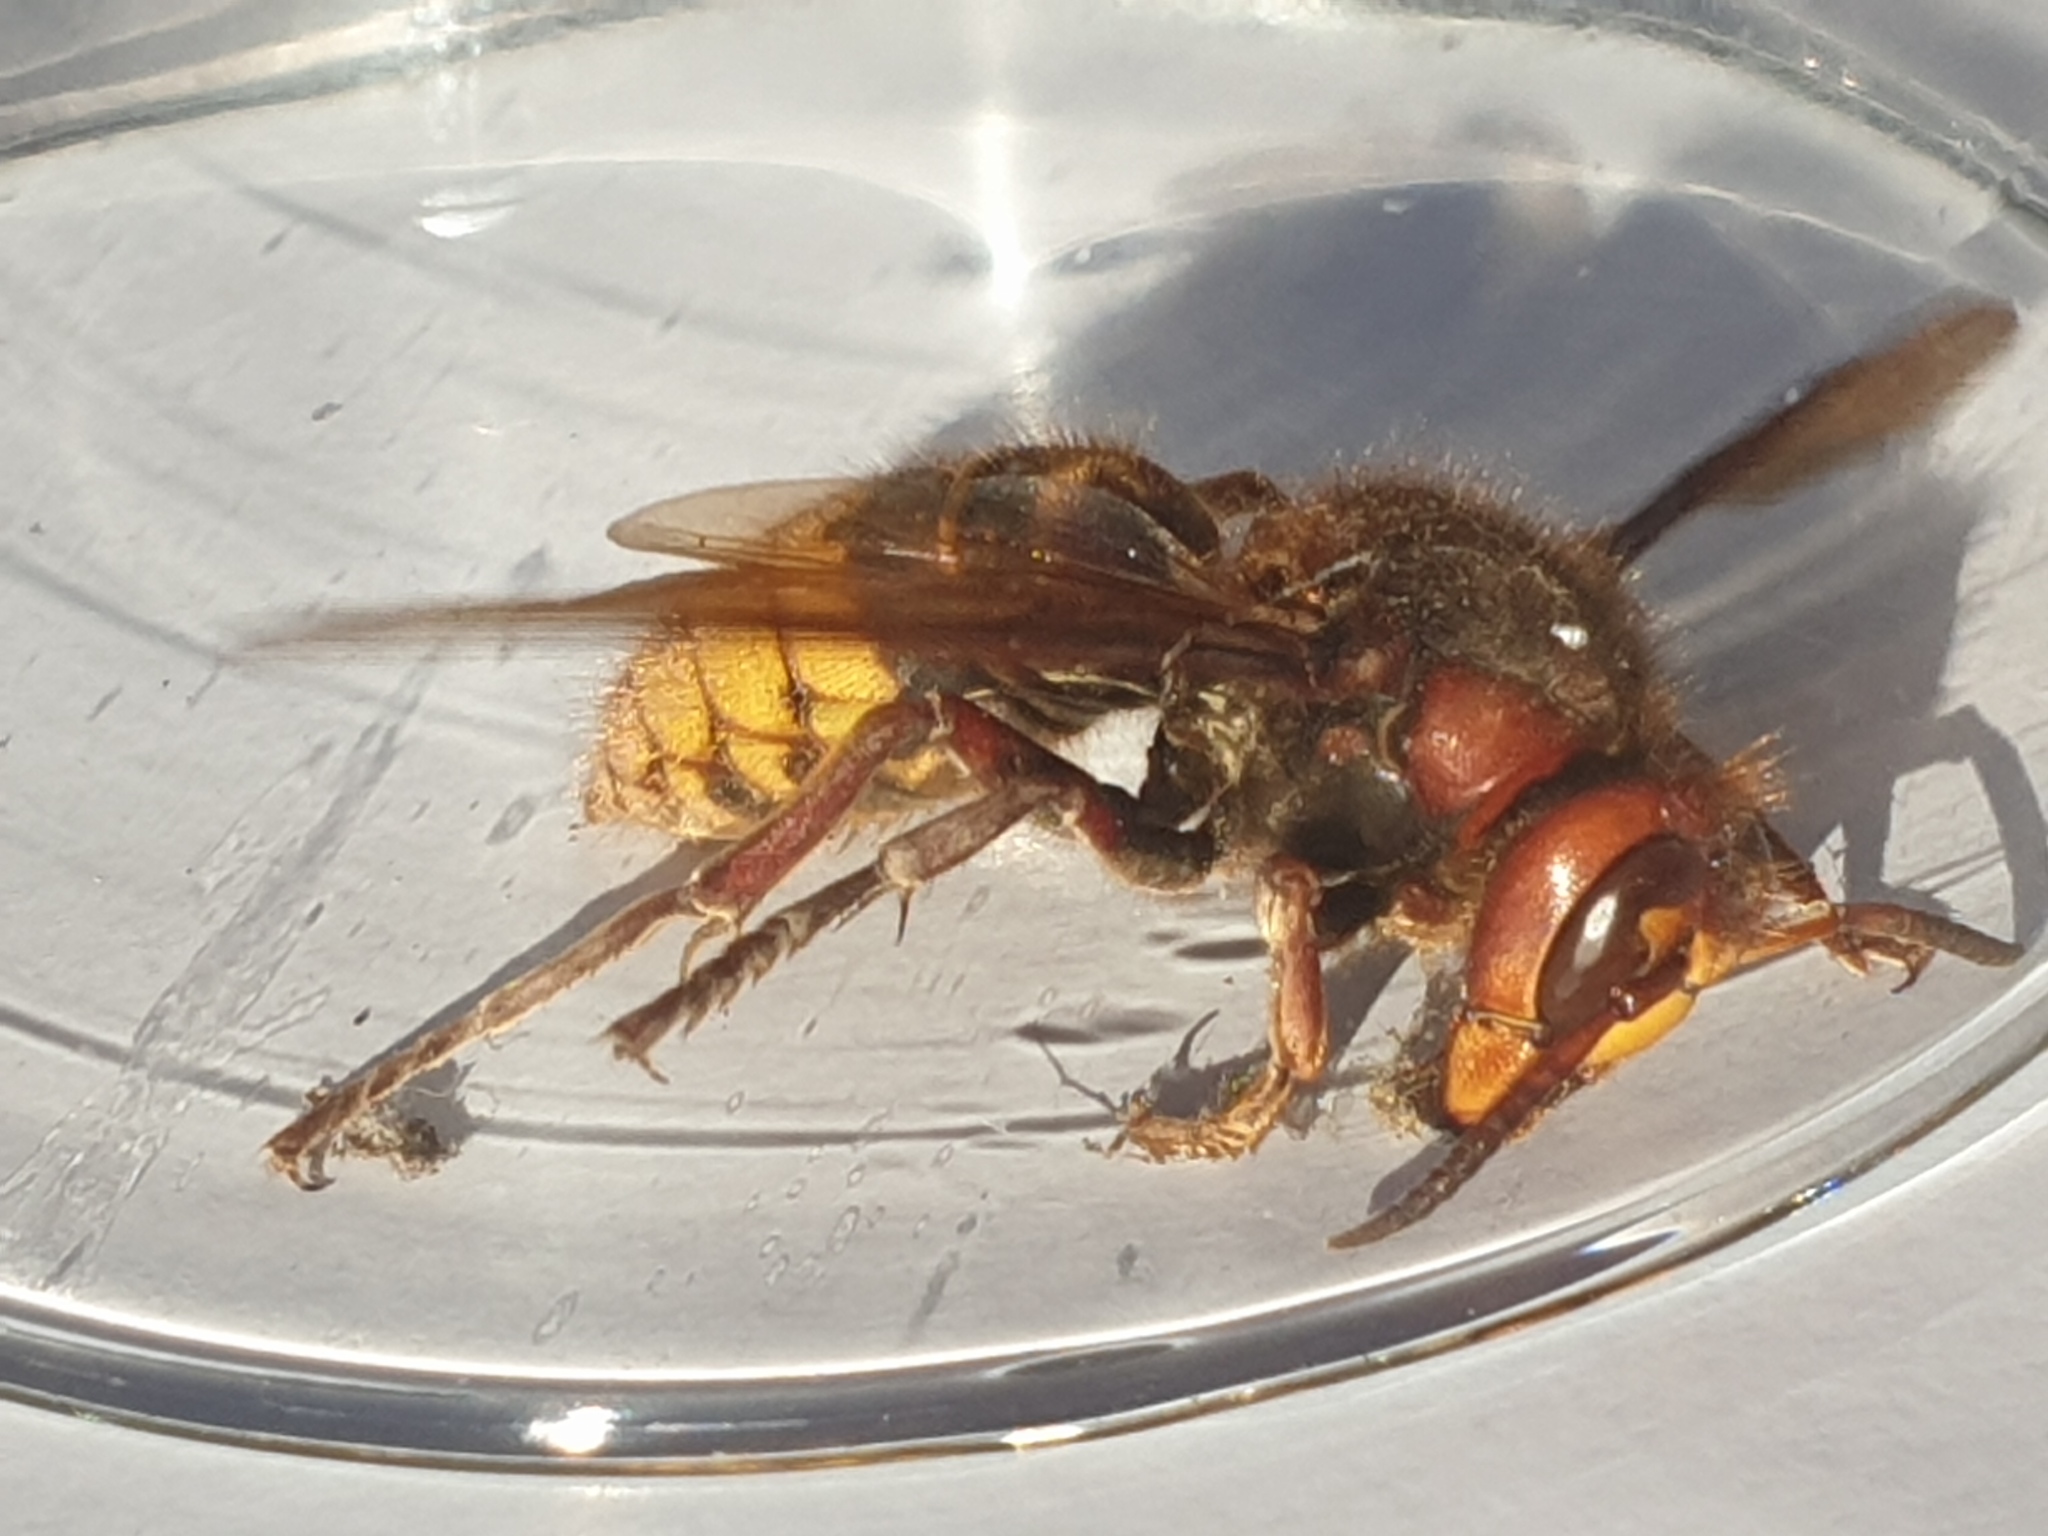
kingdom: Animalia
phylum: Arthropoda
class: Insecta
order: Hymenoptera
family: Vespidae
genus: Vespa
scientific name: Vespa crabro
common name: Hornet
